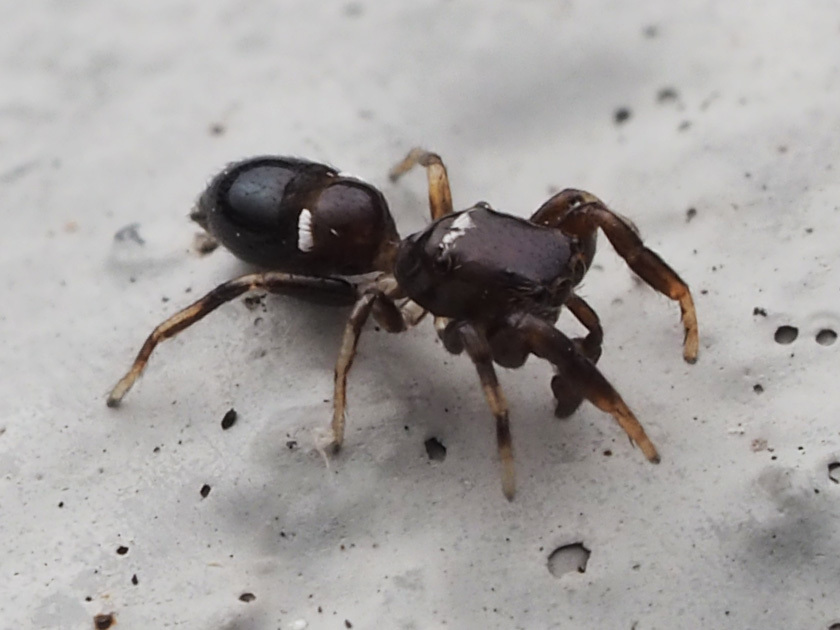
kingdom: Animalia
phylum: Arthropoda
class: Arachnida
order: Araneae
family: Salticidae
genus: Synageles
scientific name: Synageles noxiosus
